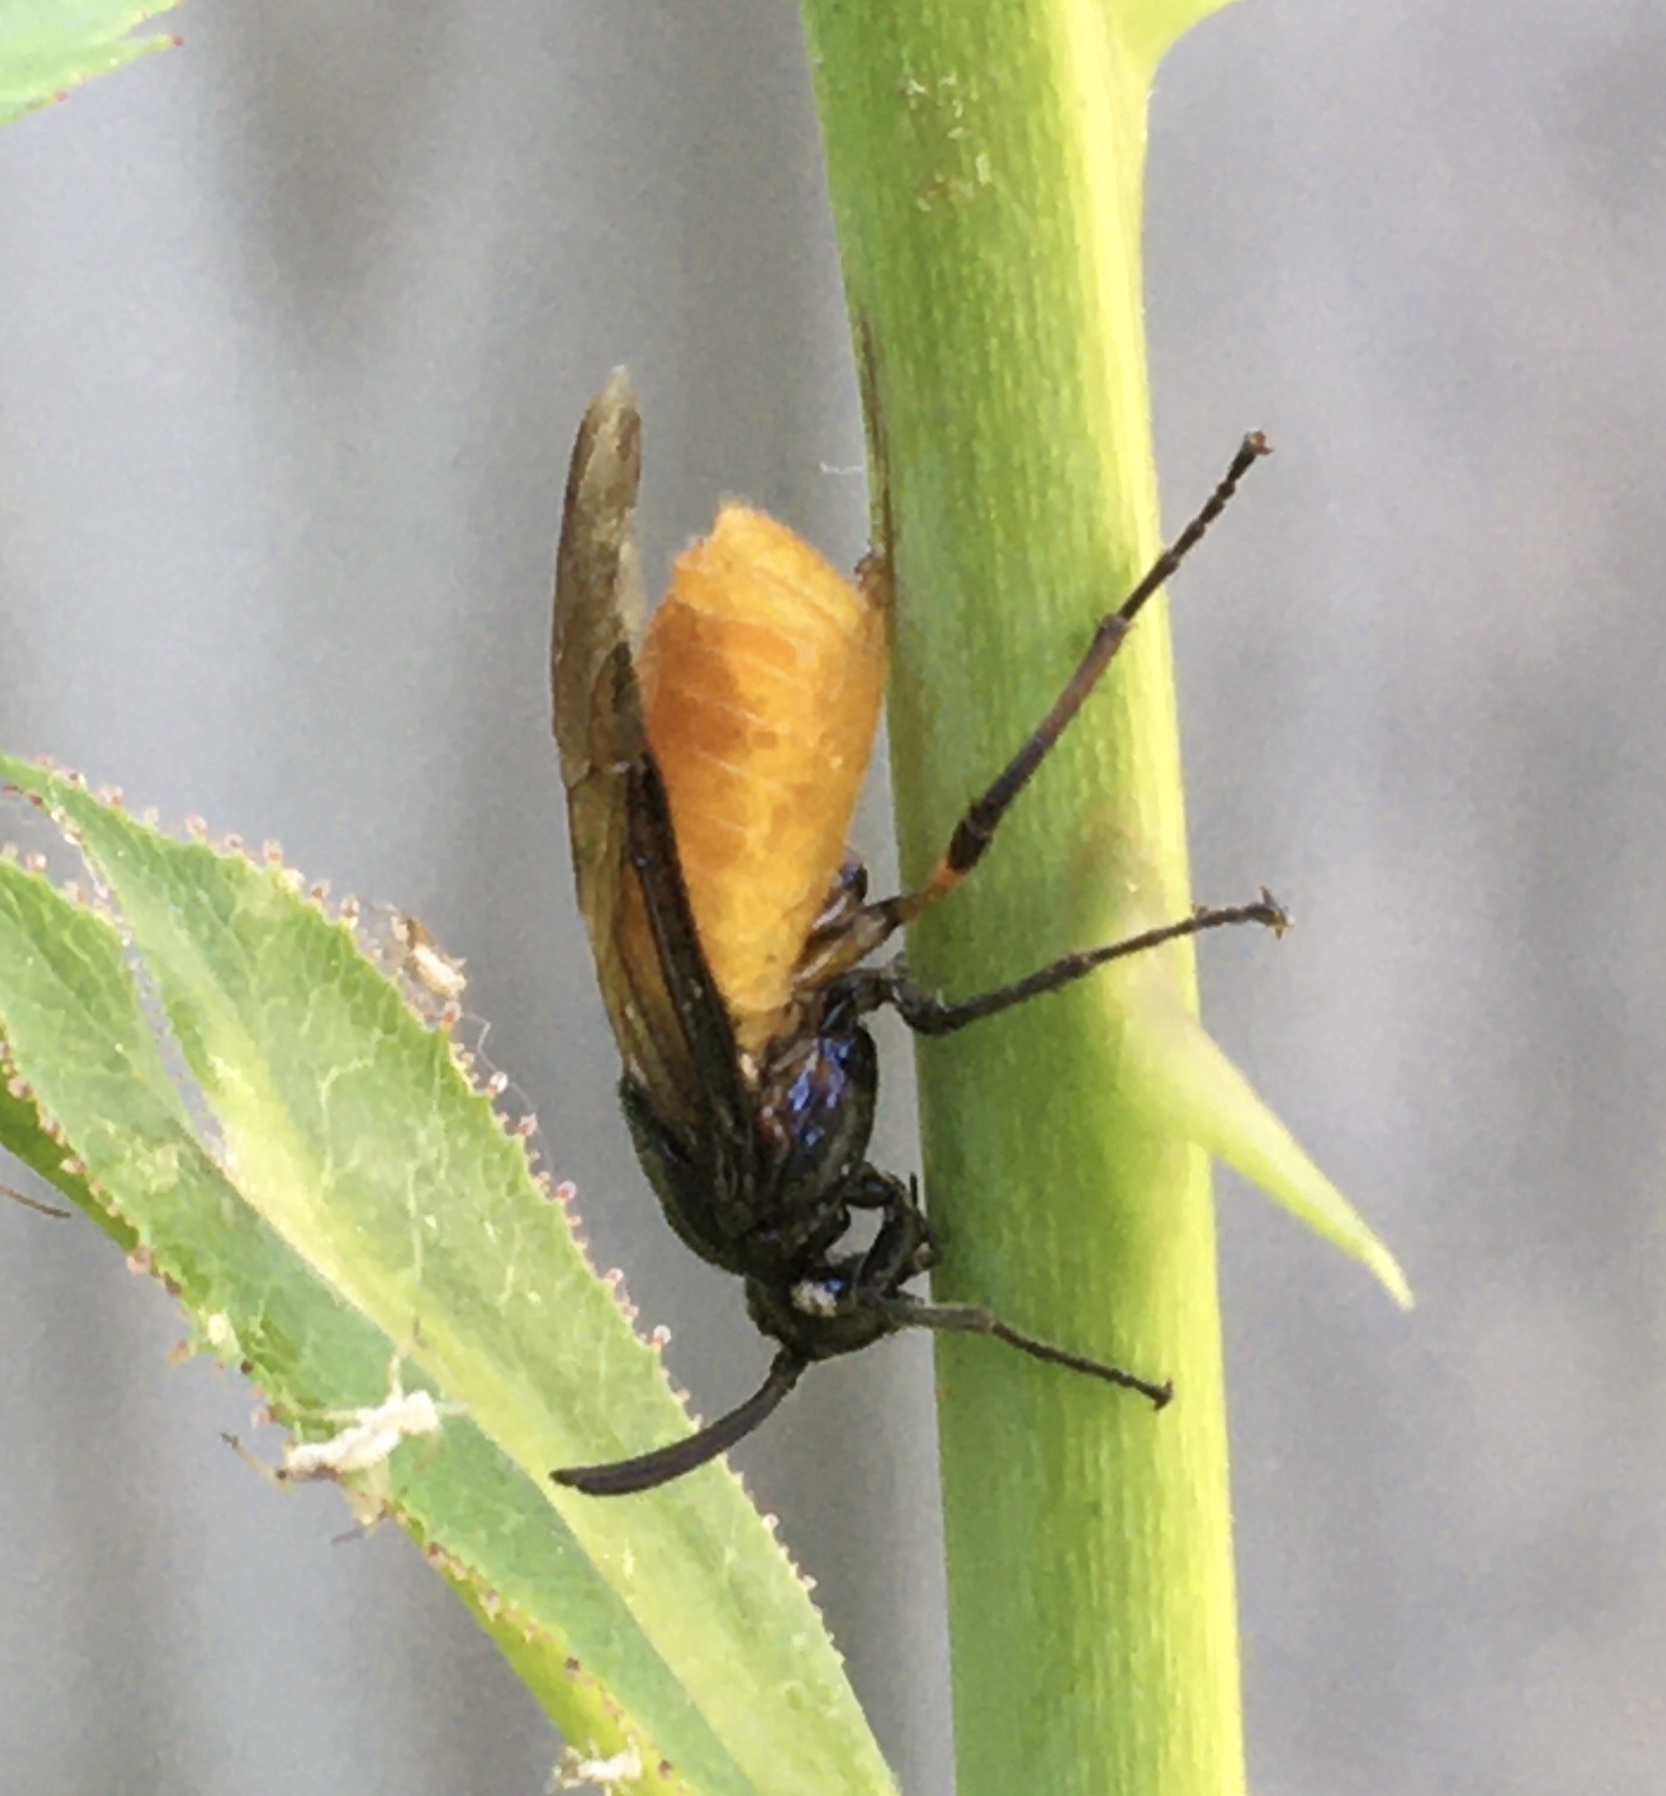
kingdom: Animalia
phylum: Arthropoda
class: Insecta
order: Hymenoptera
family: Argidae
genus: Arge
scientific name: Arge pagana
